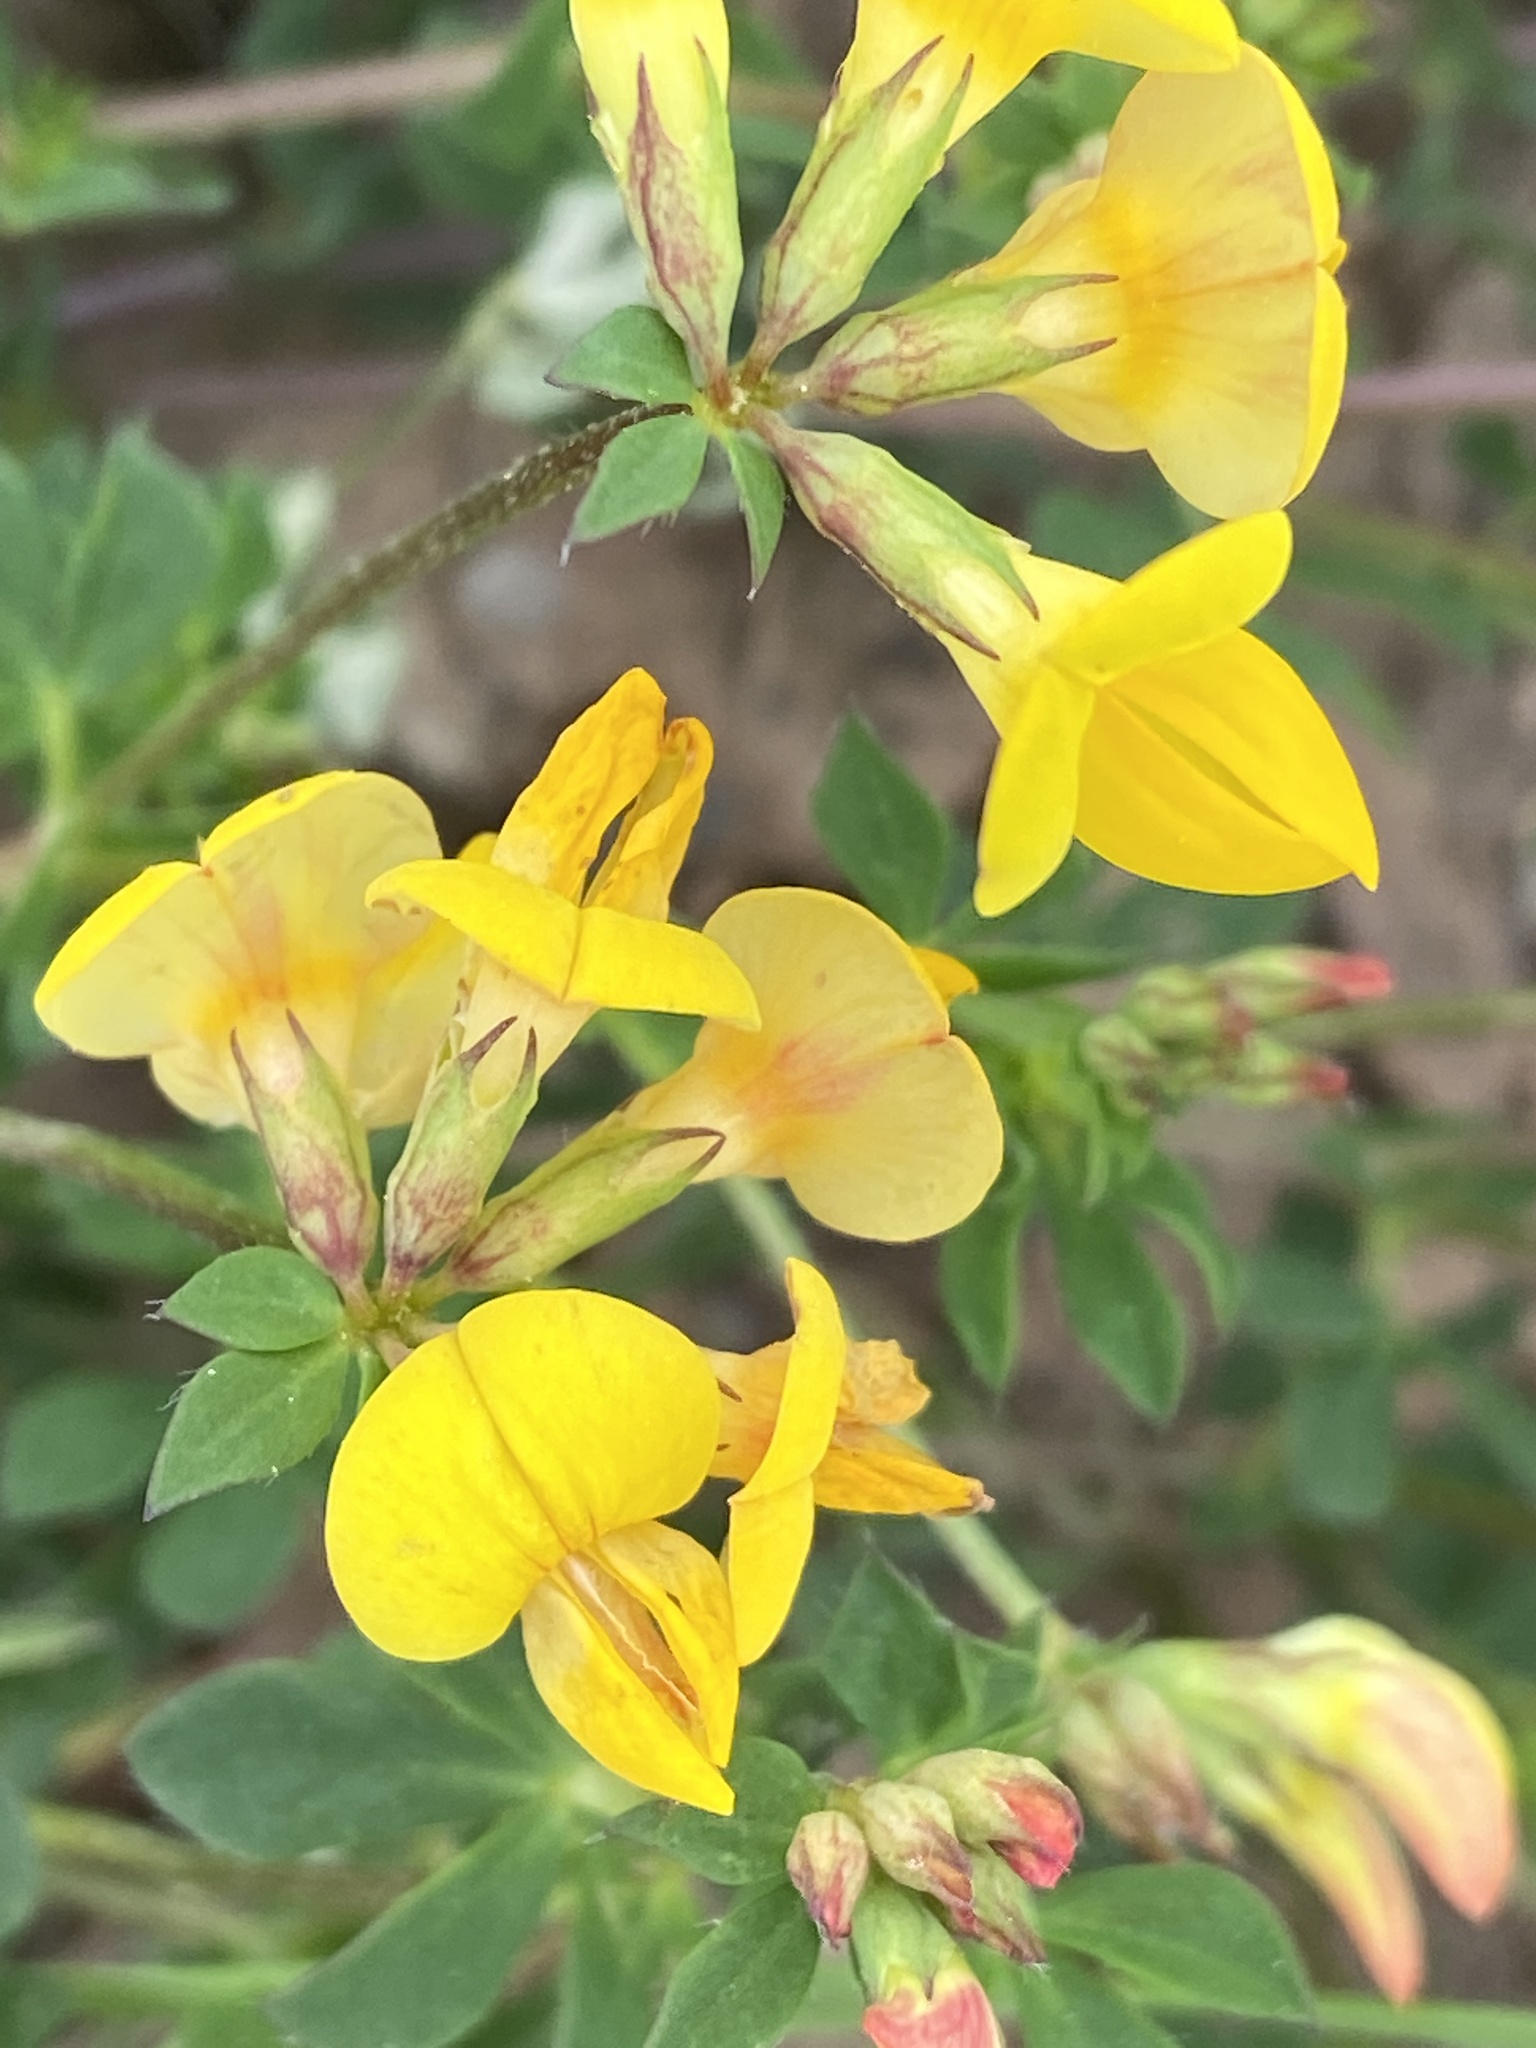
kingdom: Plantae
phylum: Tracheophyta
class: Magnoliopsida
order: Fabales
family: Fabaceae
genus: Lotus
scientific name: Lotus corniculatus
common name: Common bird's-foot-trefoil
